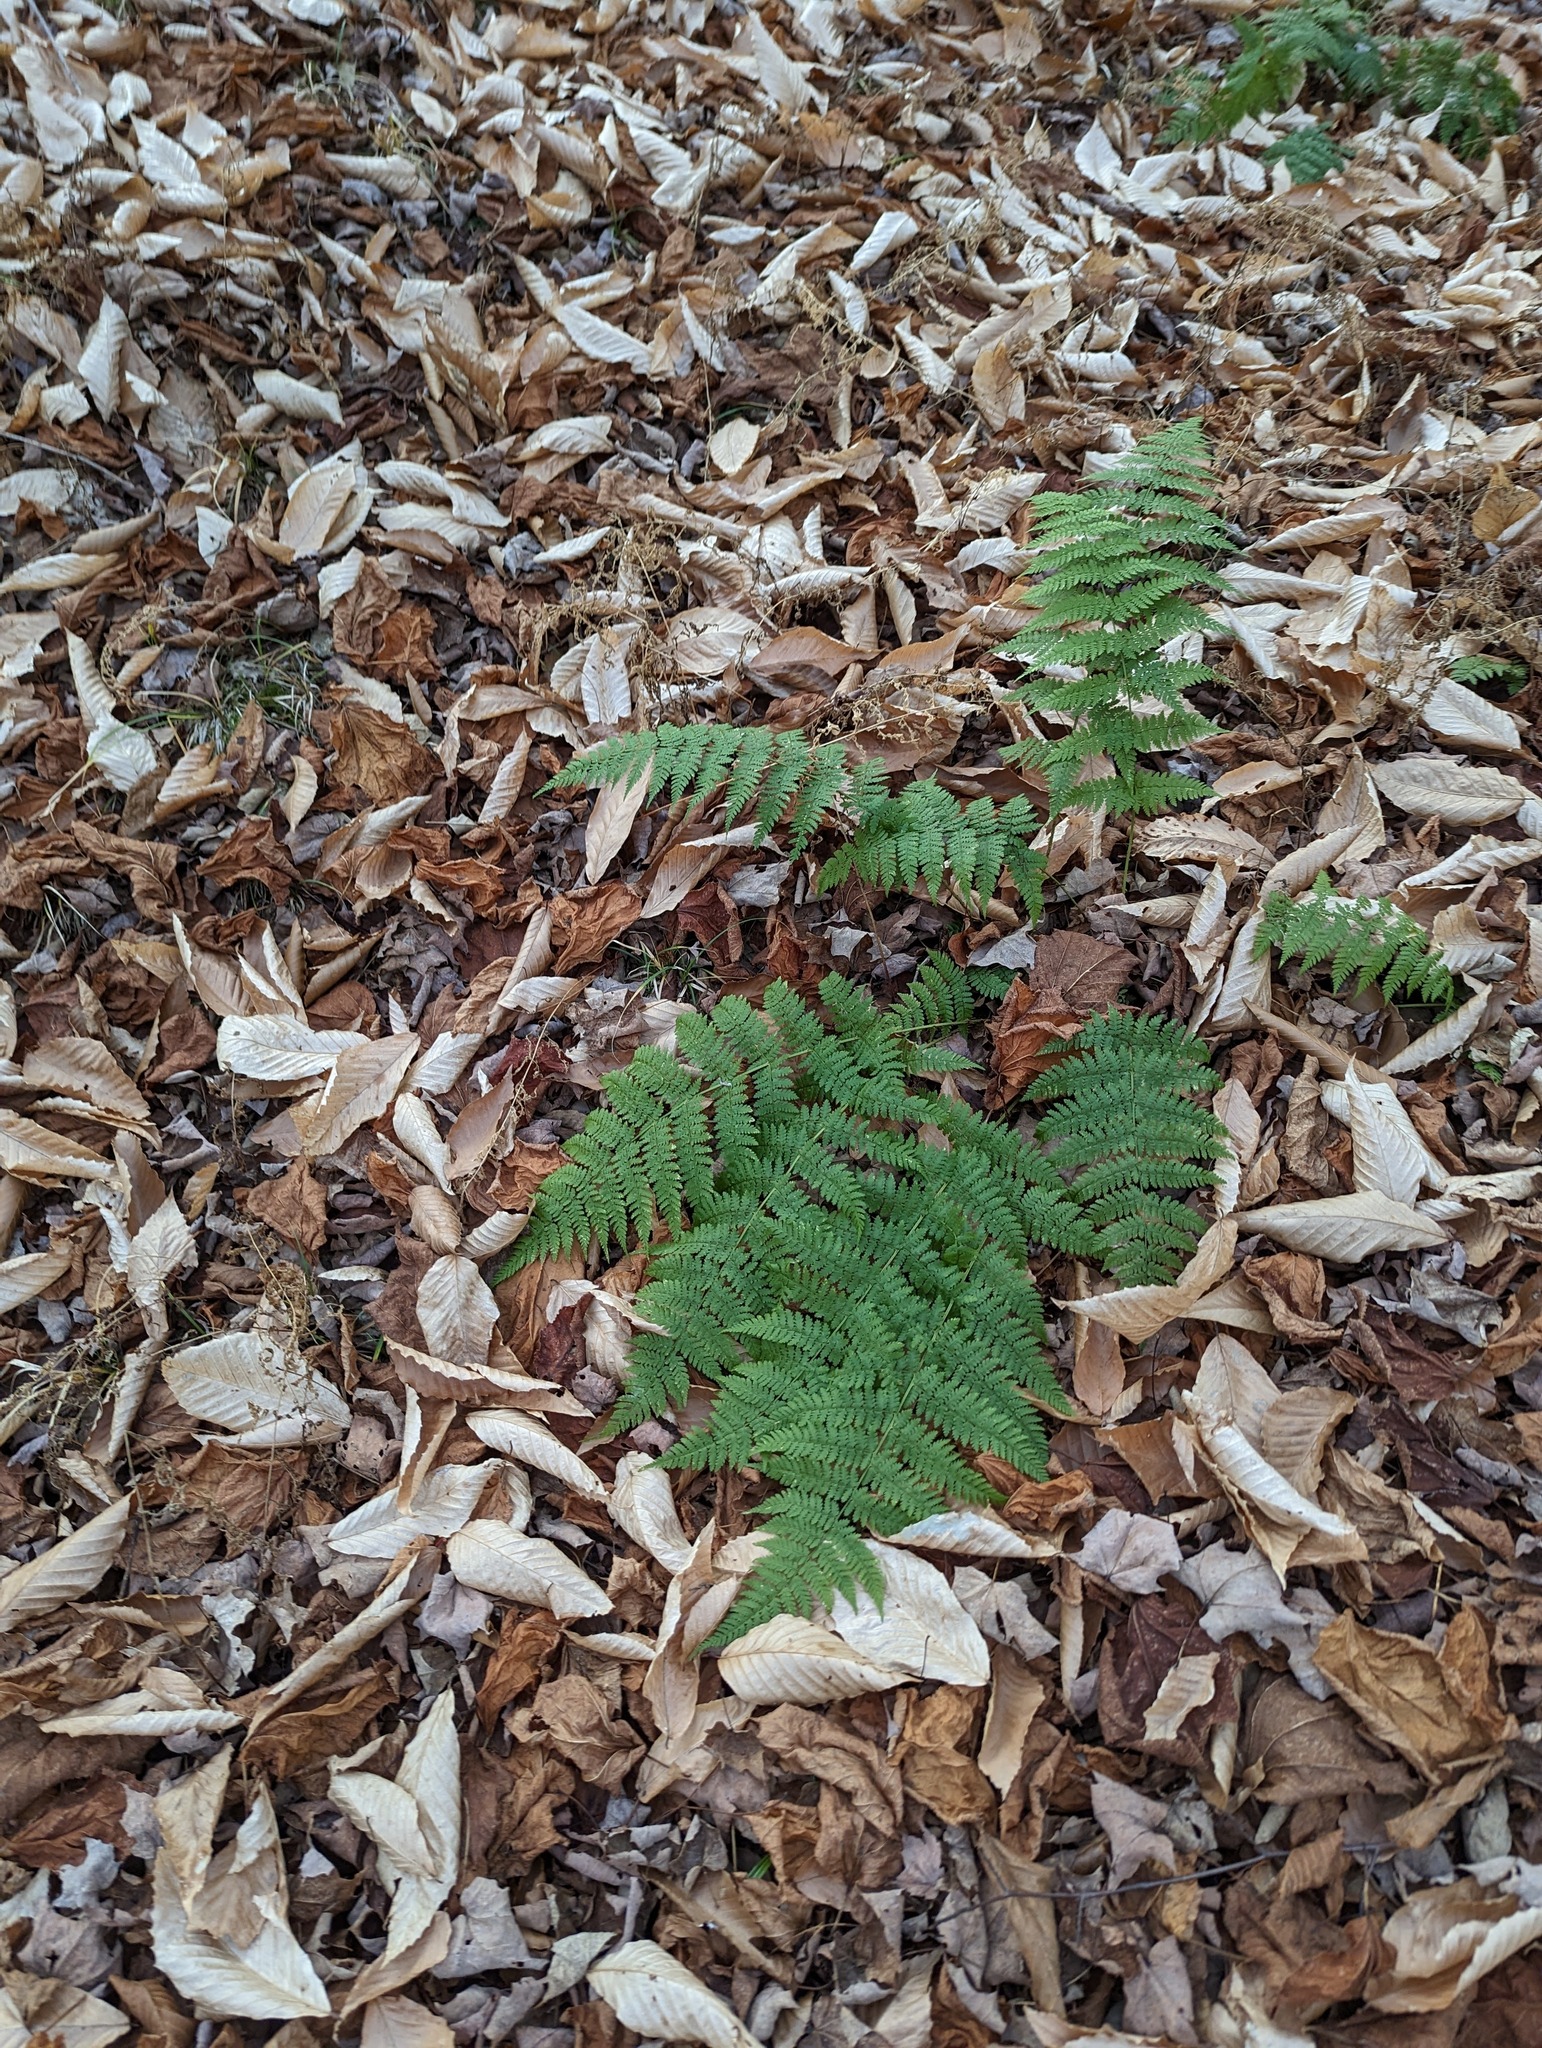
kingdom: Plantae
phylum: Tracheophyta
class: Polypodiopsida
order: Polypodiales
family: Dryopteridaceae
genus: Dryopteris
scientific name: Dryopteris intermedia
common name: Evergreen wood fern
